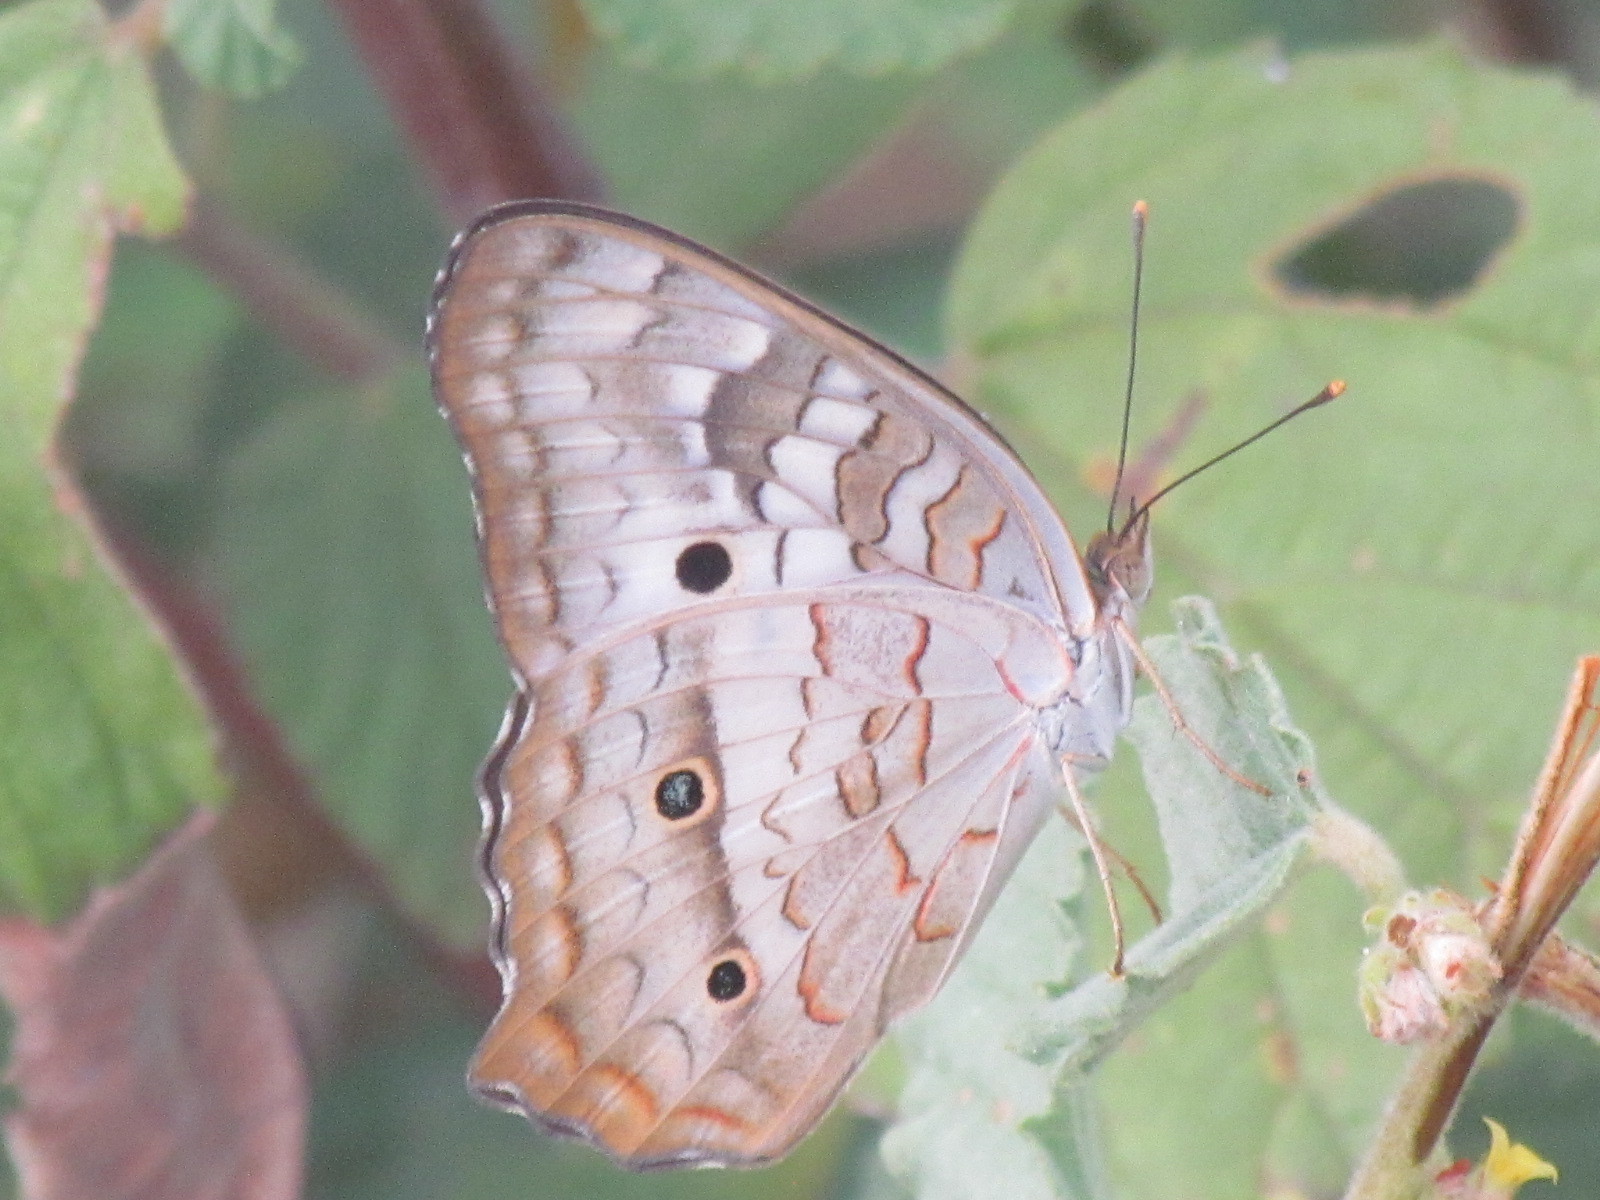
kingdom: Animalia
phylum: Arthropoda
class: Insecta
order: Lepidoptera
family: Nymphalidae
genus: Anartia
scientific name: Anartia jatrophae
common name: White peacock
